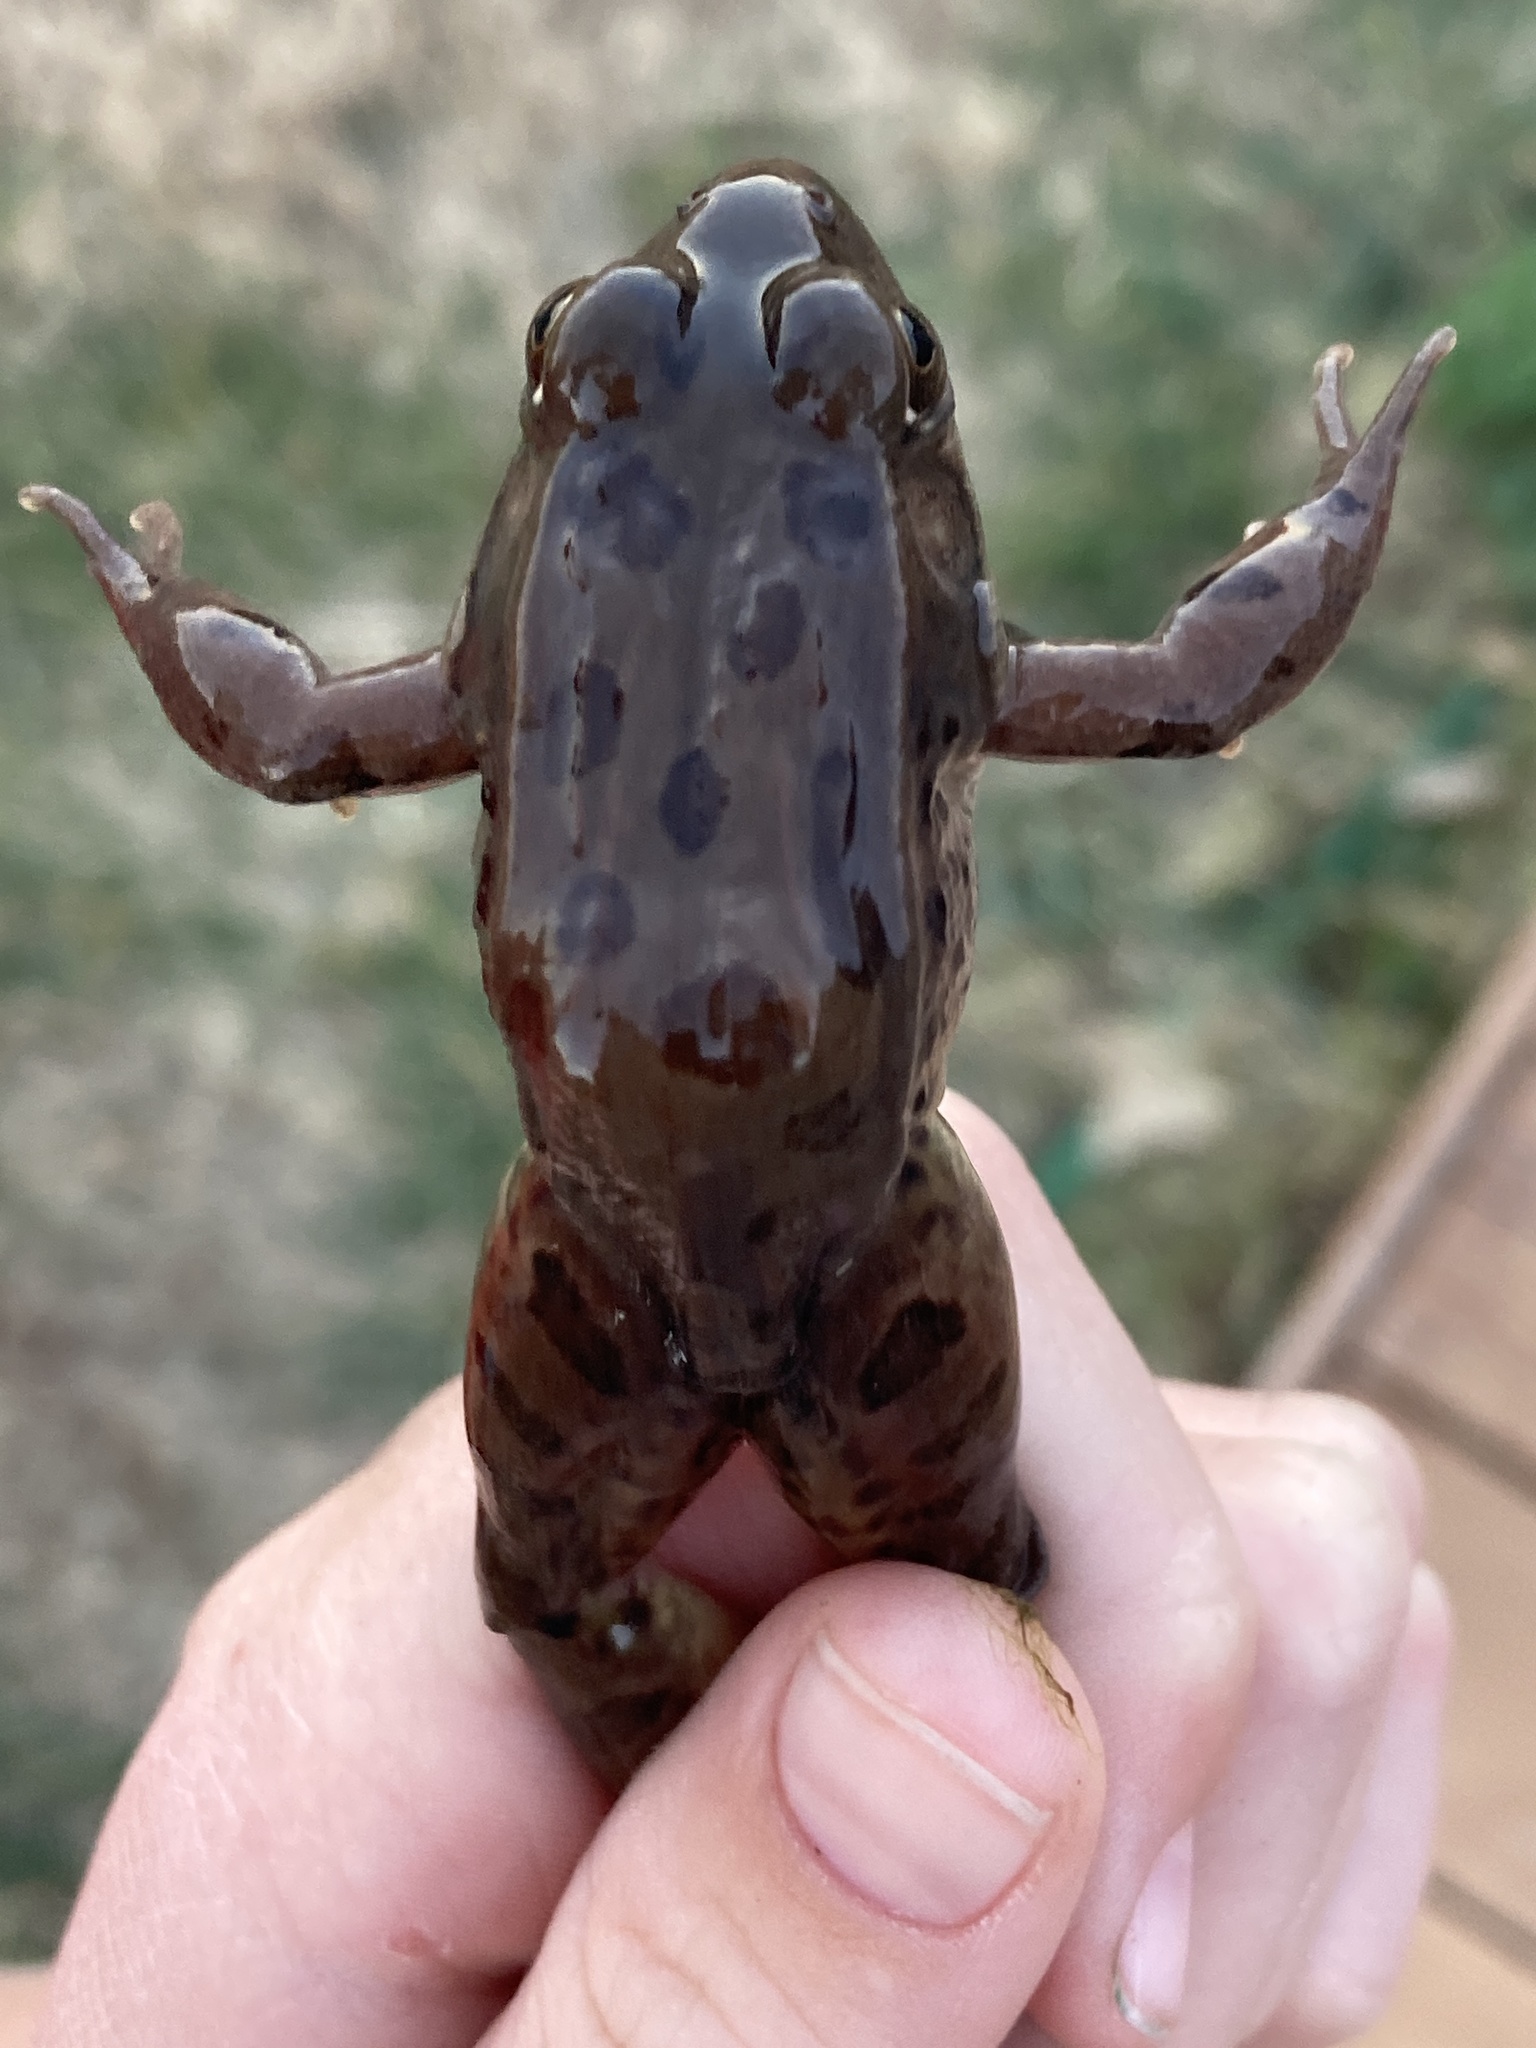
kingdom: Animalia
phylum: Chordata
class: Amphibia
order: Anura
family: Ranidae
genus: Lithobates
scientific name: Lithobates blairi
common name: Plains leopard frog
